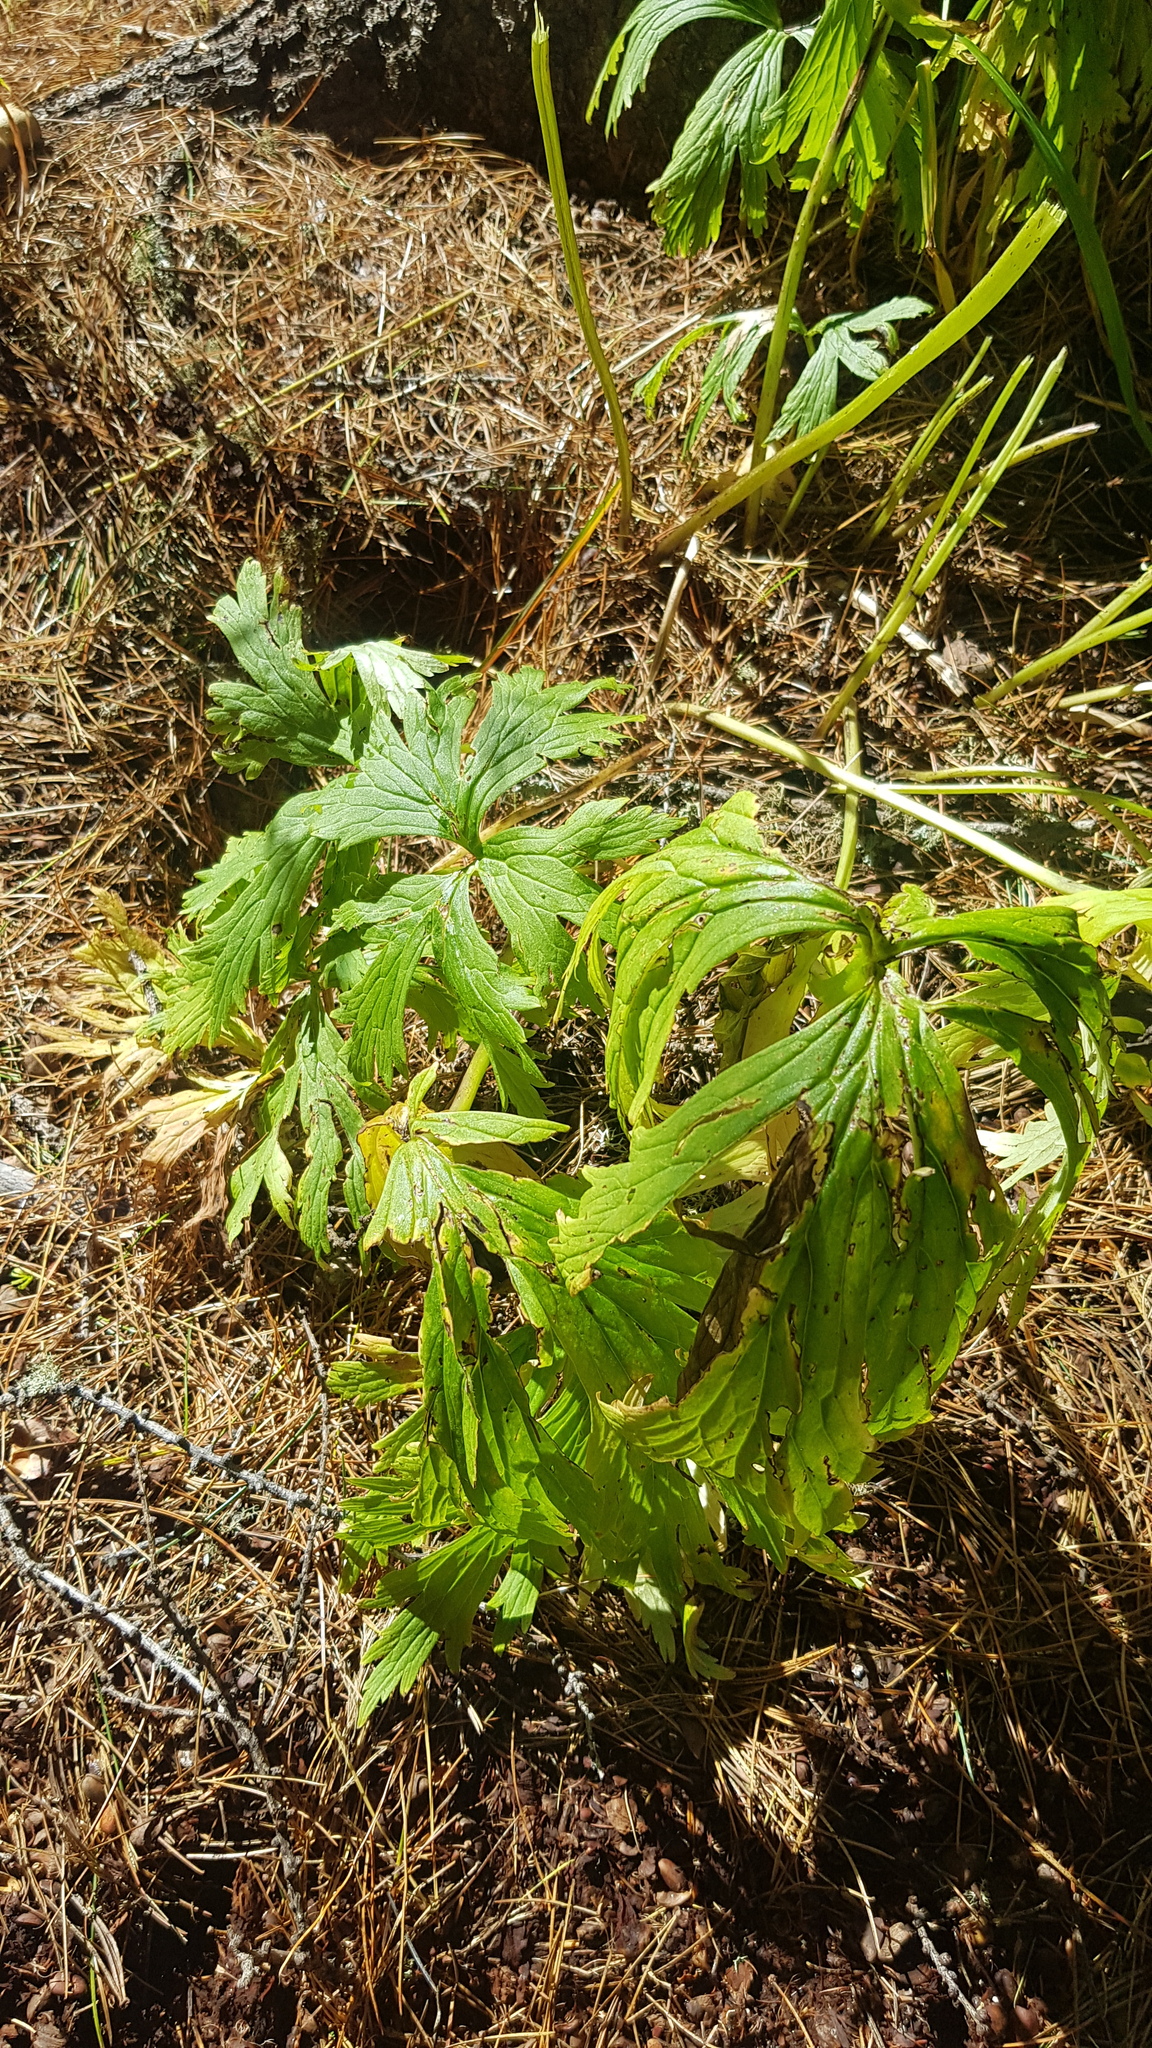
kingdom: Plantae
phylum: Tracheophyta
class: Magnoliopsida
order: Ranunculales
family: Ranunculaceae
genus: Aconitum
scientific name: Aconitum septentrionale
